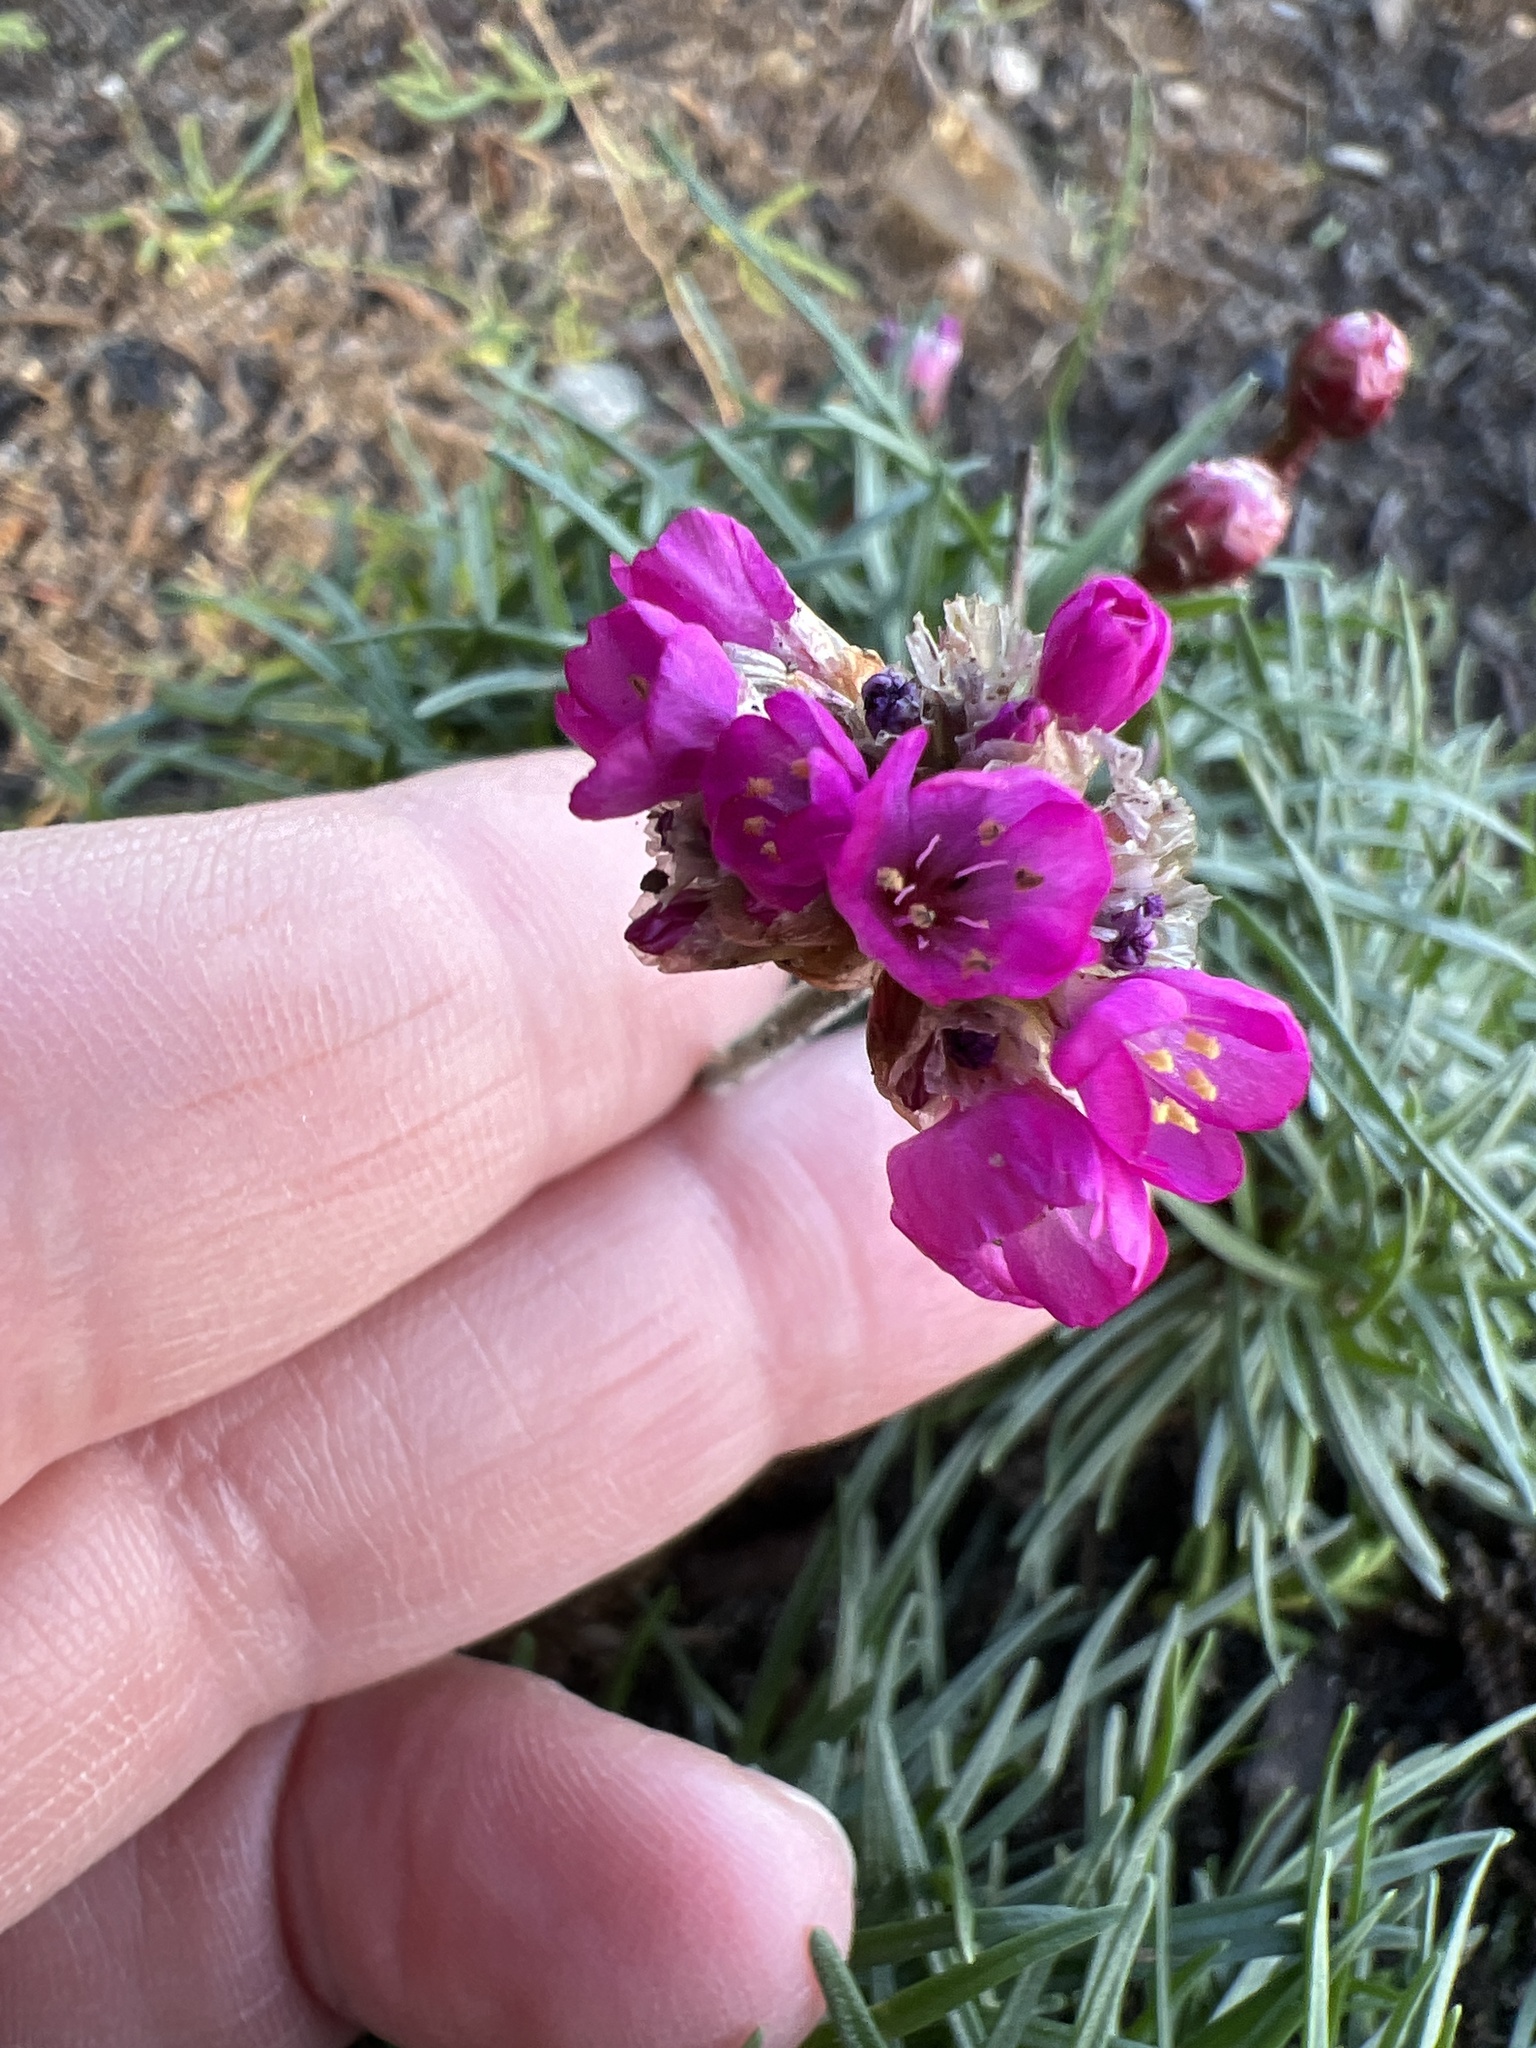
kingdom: Plantae
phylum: Tracheophyta
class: Magnoliopsida
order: Caryophyllales
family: Plumbaginaceae
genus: Armeria
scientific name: Armeria maritima
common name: Thrift
